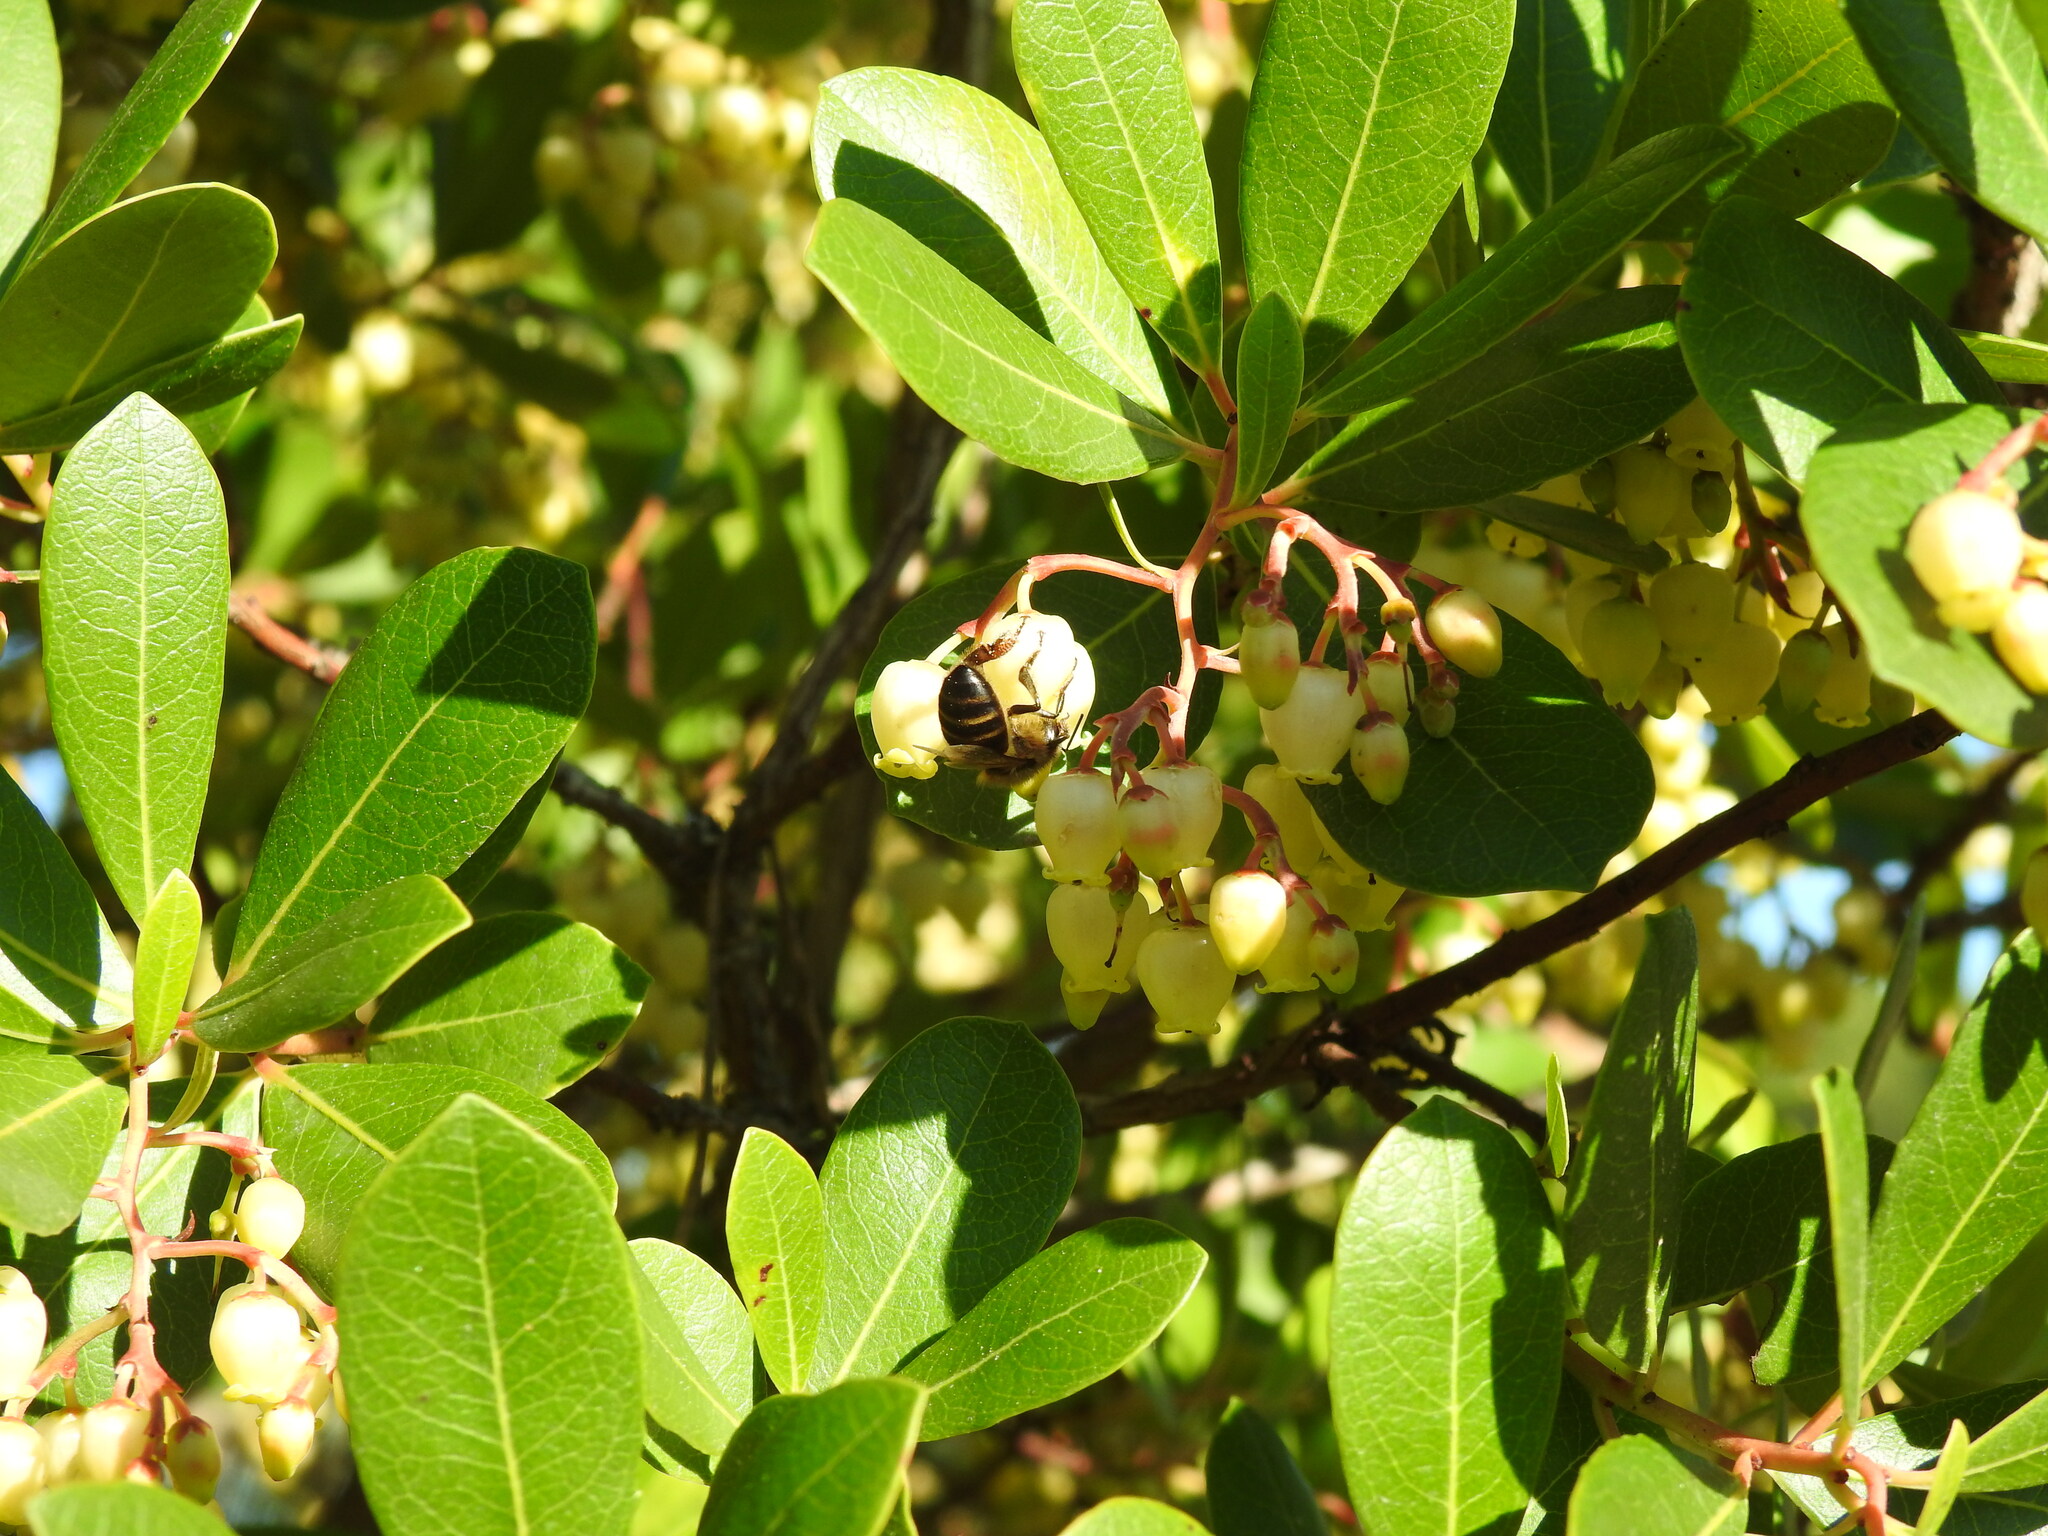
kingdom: Animalia
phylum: Arthropoda
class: Insecta
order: Hymenoptera
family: Apidae
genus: Apis
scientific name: Apis mellifera
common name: Honey bee
